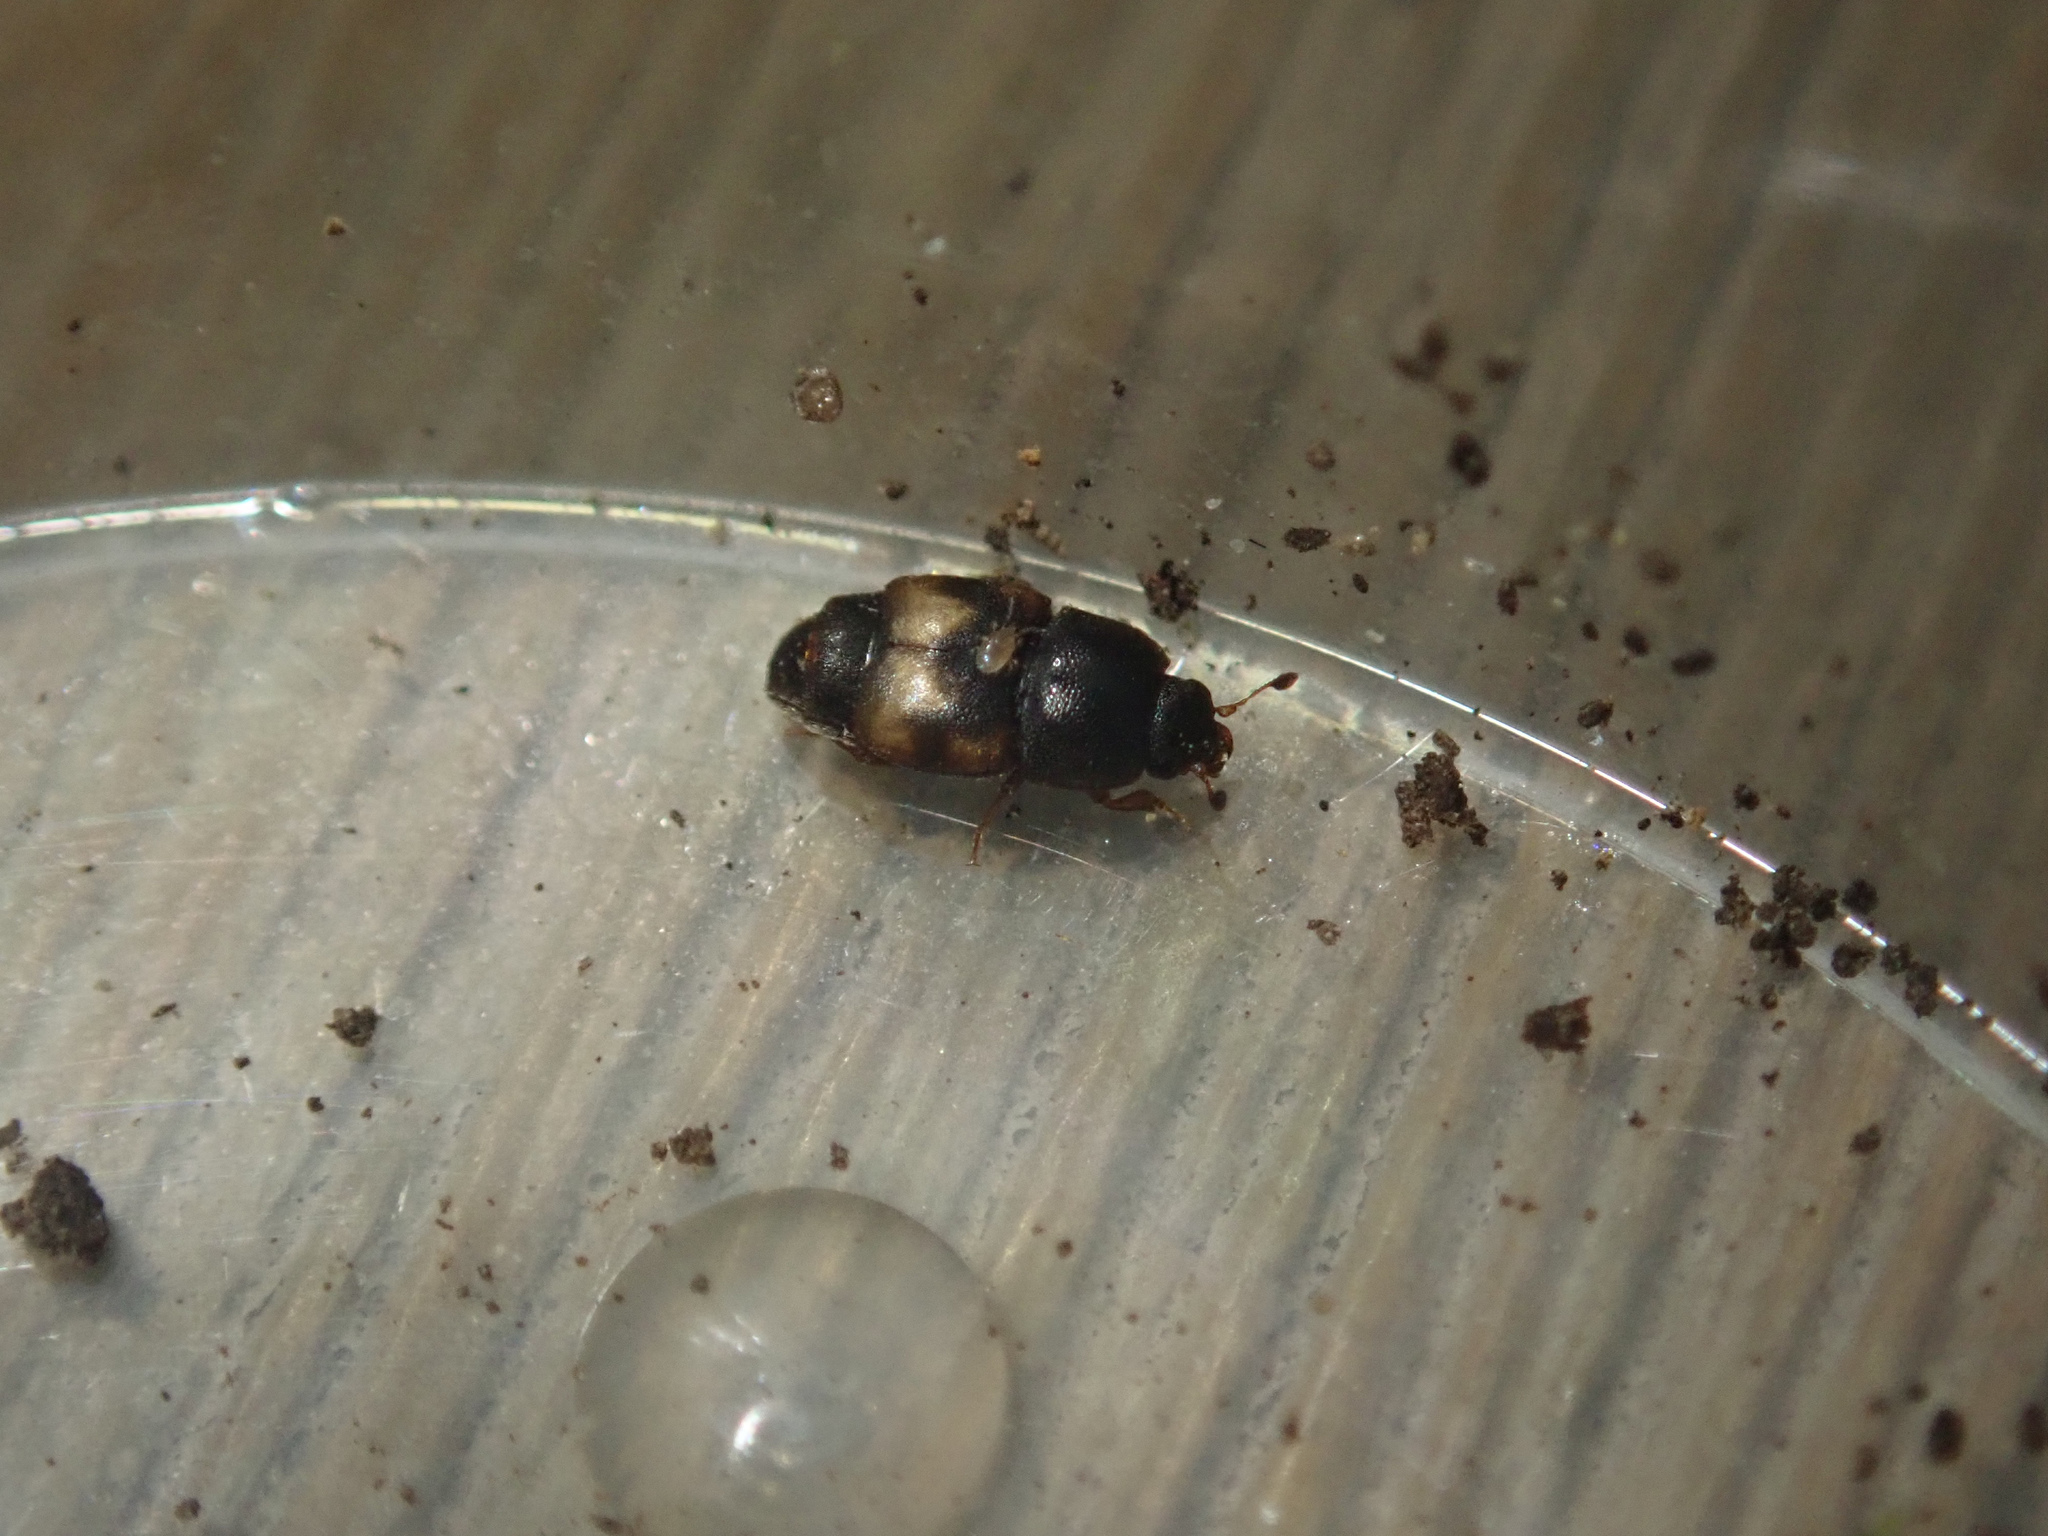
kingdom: Animalia
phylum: Arthropoda
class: Insecta
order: Coleoptera
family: Nitidulidae
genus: Carpophilus
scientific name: Carpophilus hemipterus
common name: Dried fruit beetle
